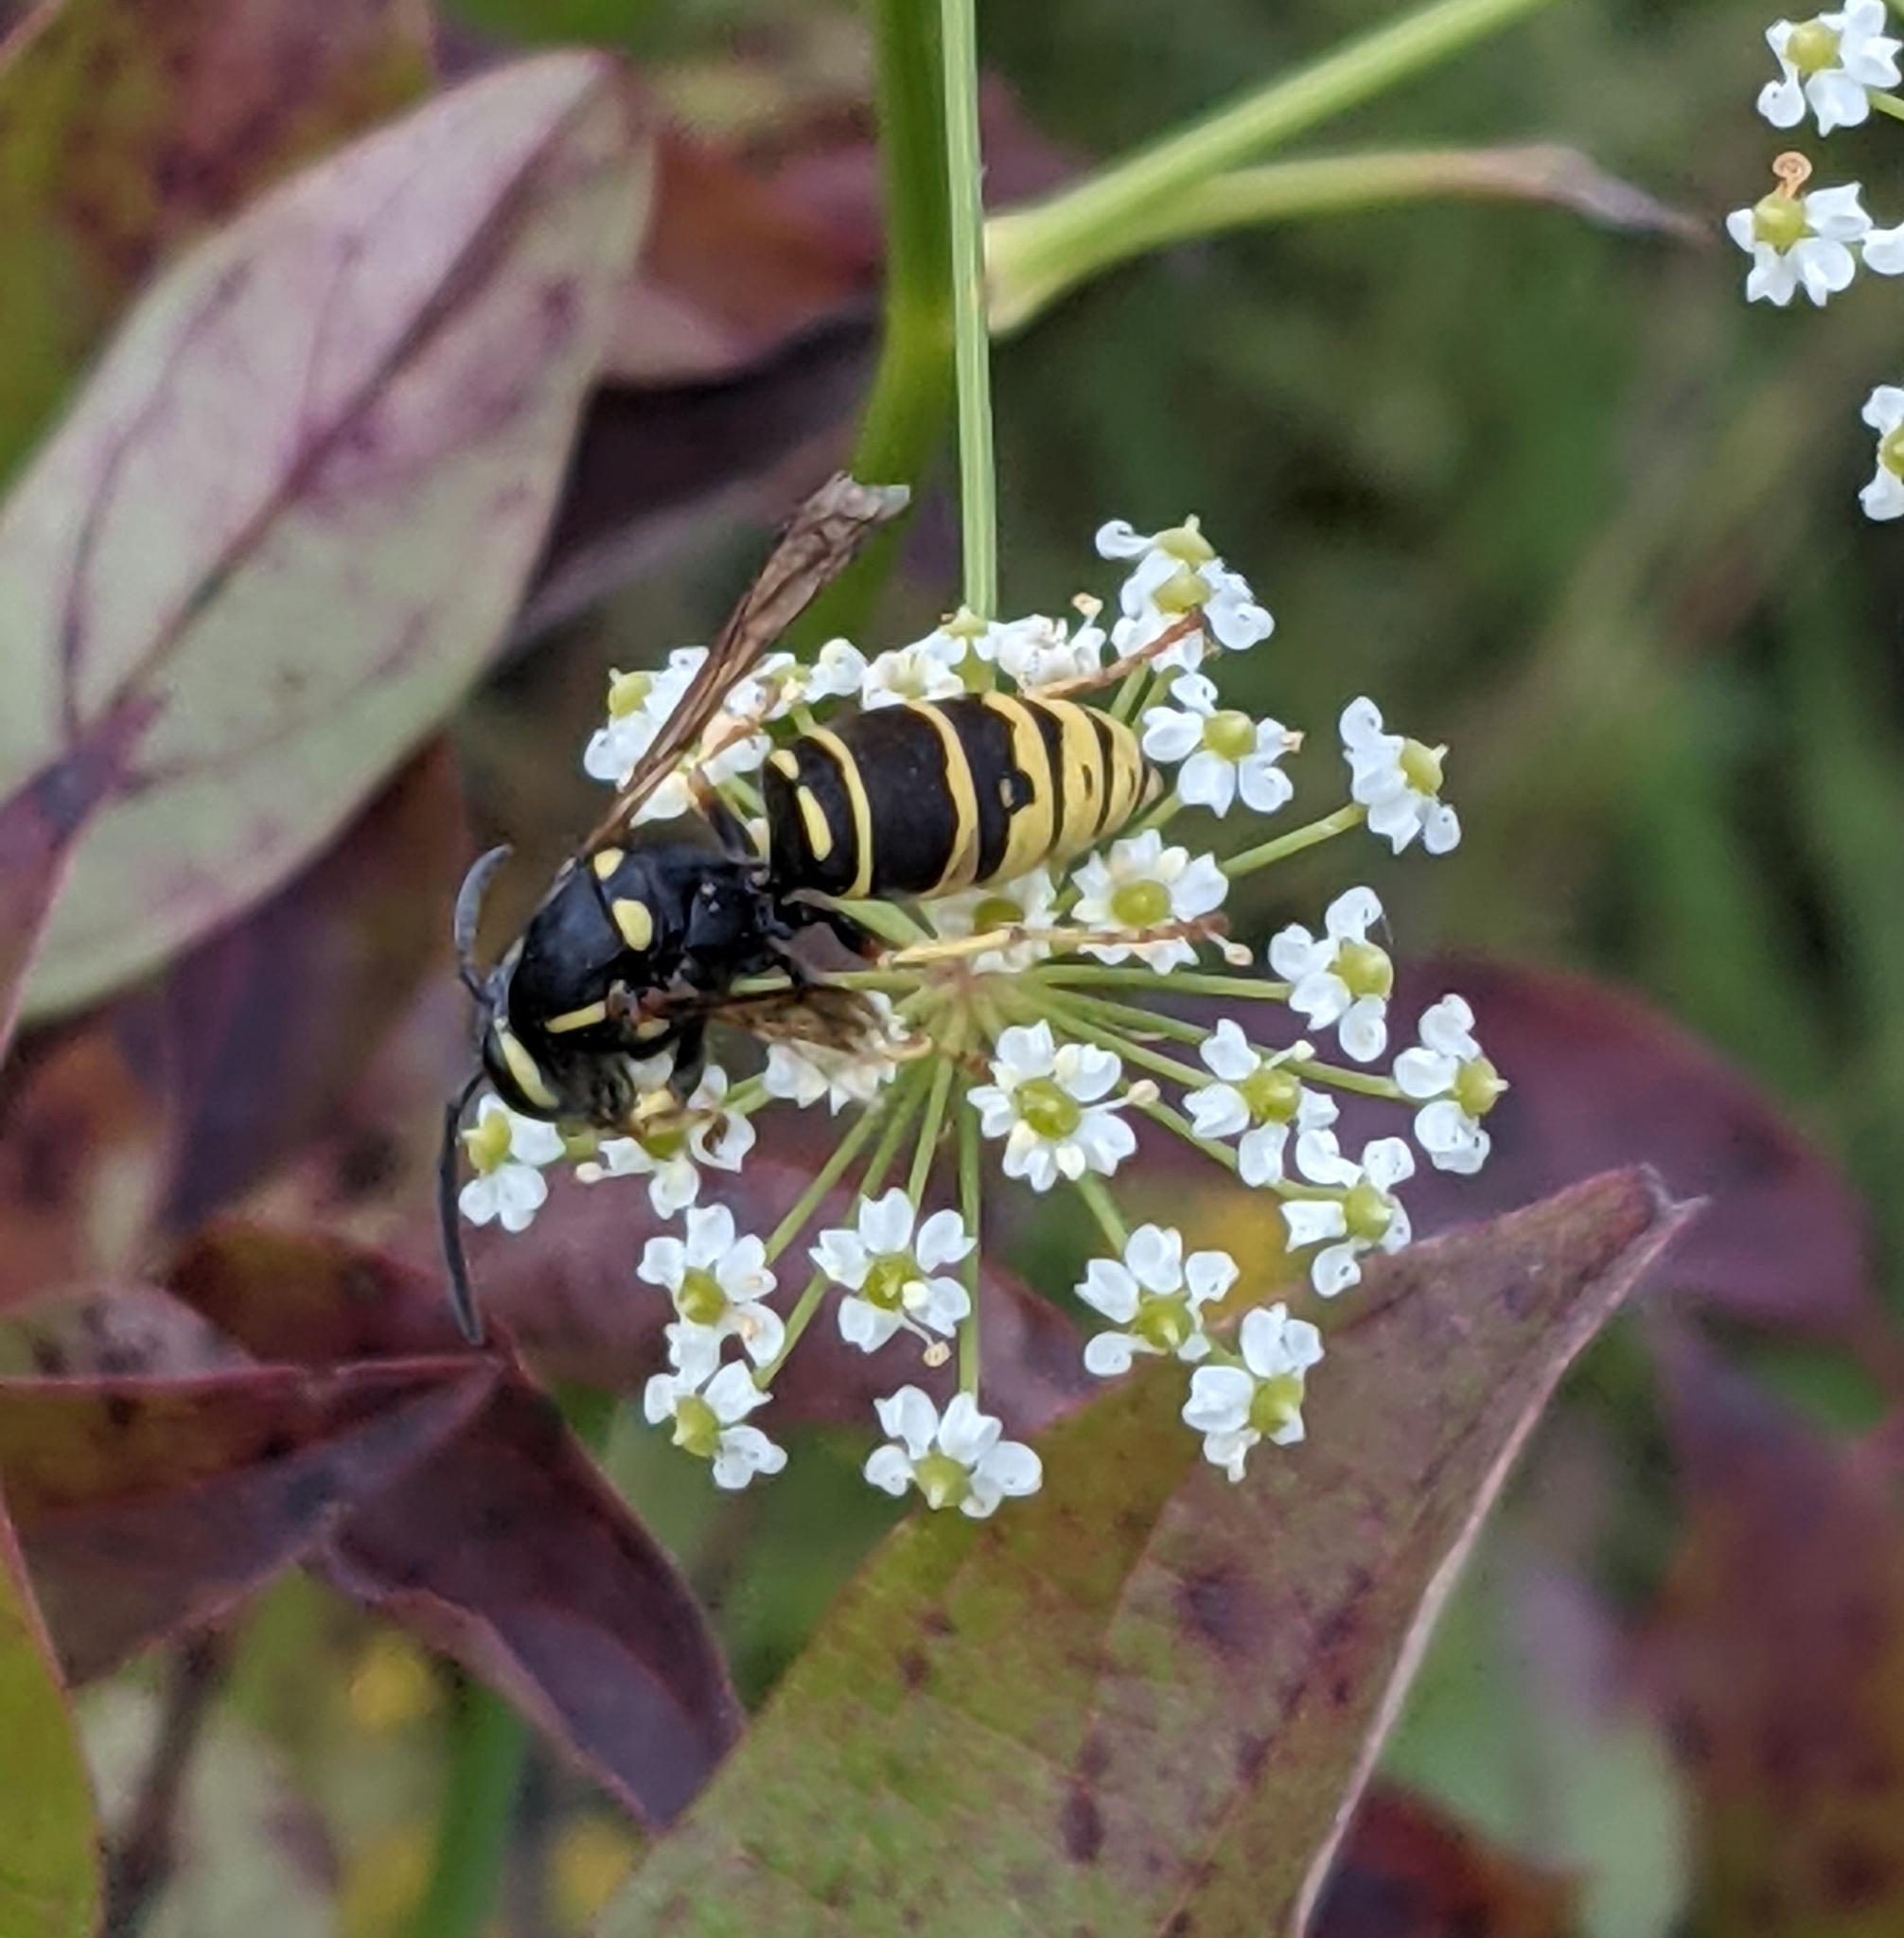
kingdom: Animalia
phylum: Arthropoda
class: Insecta
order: Hymenoptera
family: Vespidae
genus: Vespula
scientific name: Vespula vidua
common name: Widow yellowjacket
